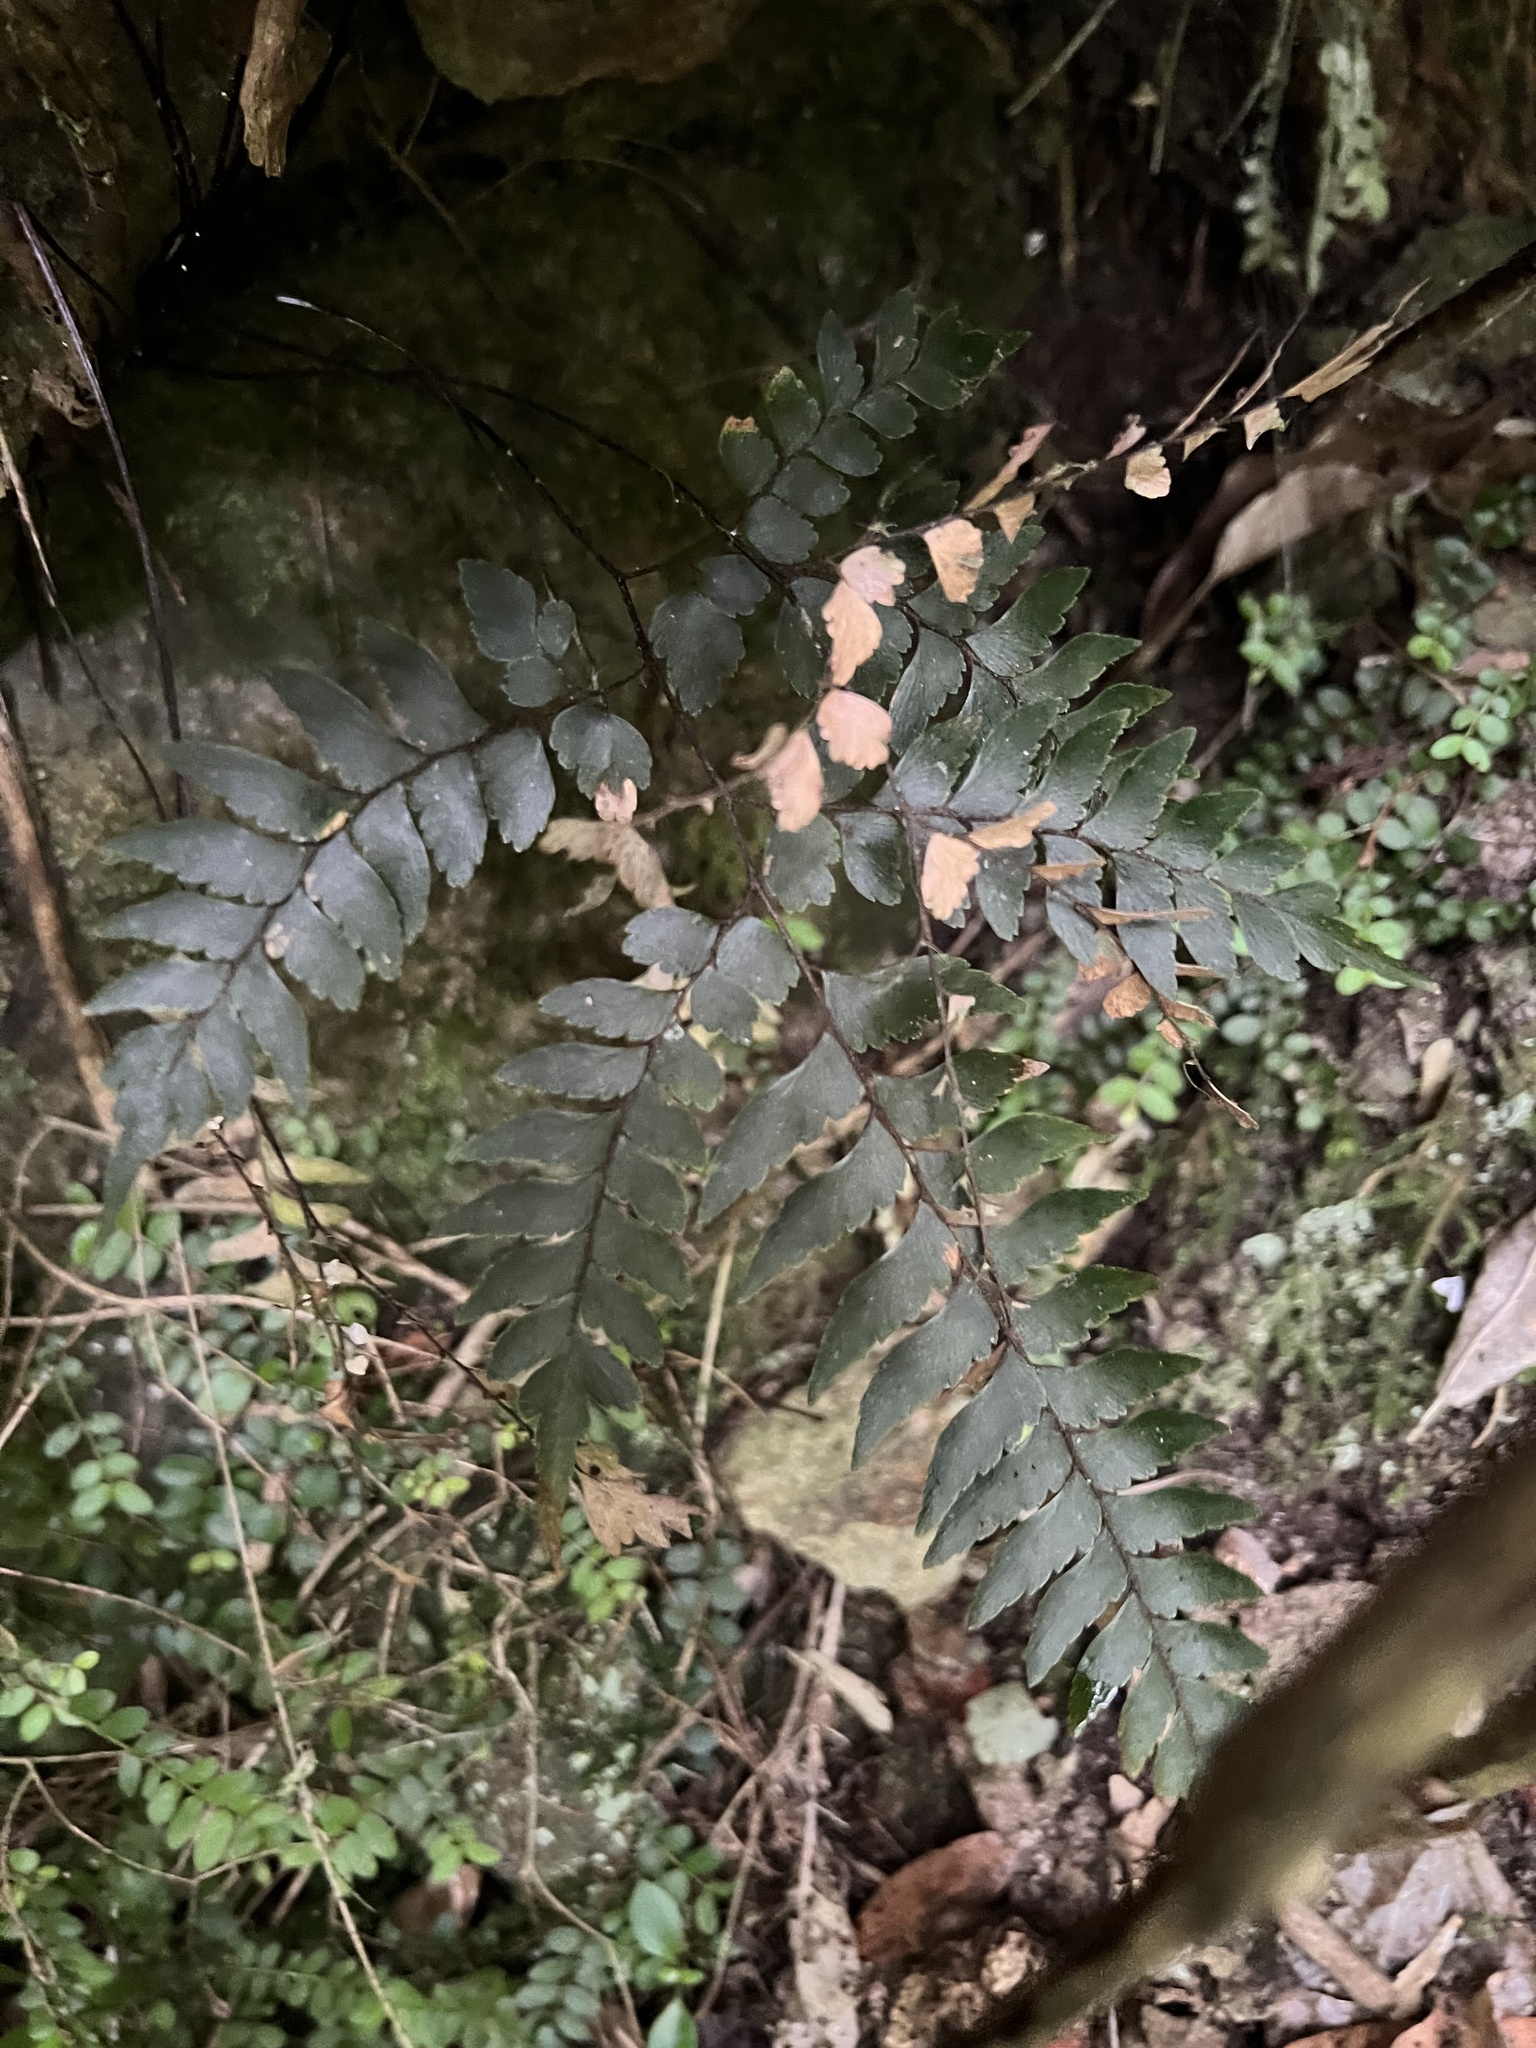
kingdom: Plantae
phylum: Tracheophyta
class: Polypodiopsida
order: Polypodiales
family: Pteridaceae
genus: Adiantum
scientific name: Adiantum fulvum
